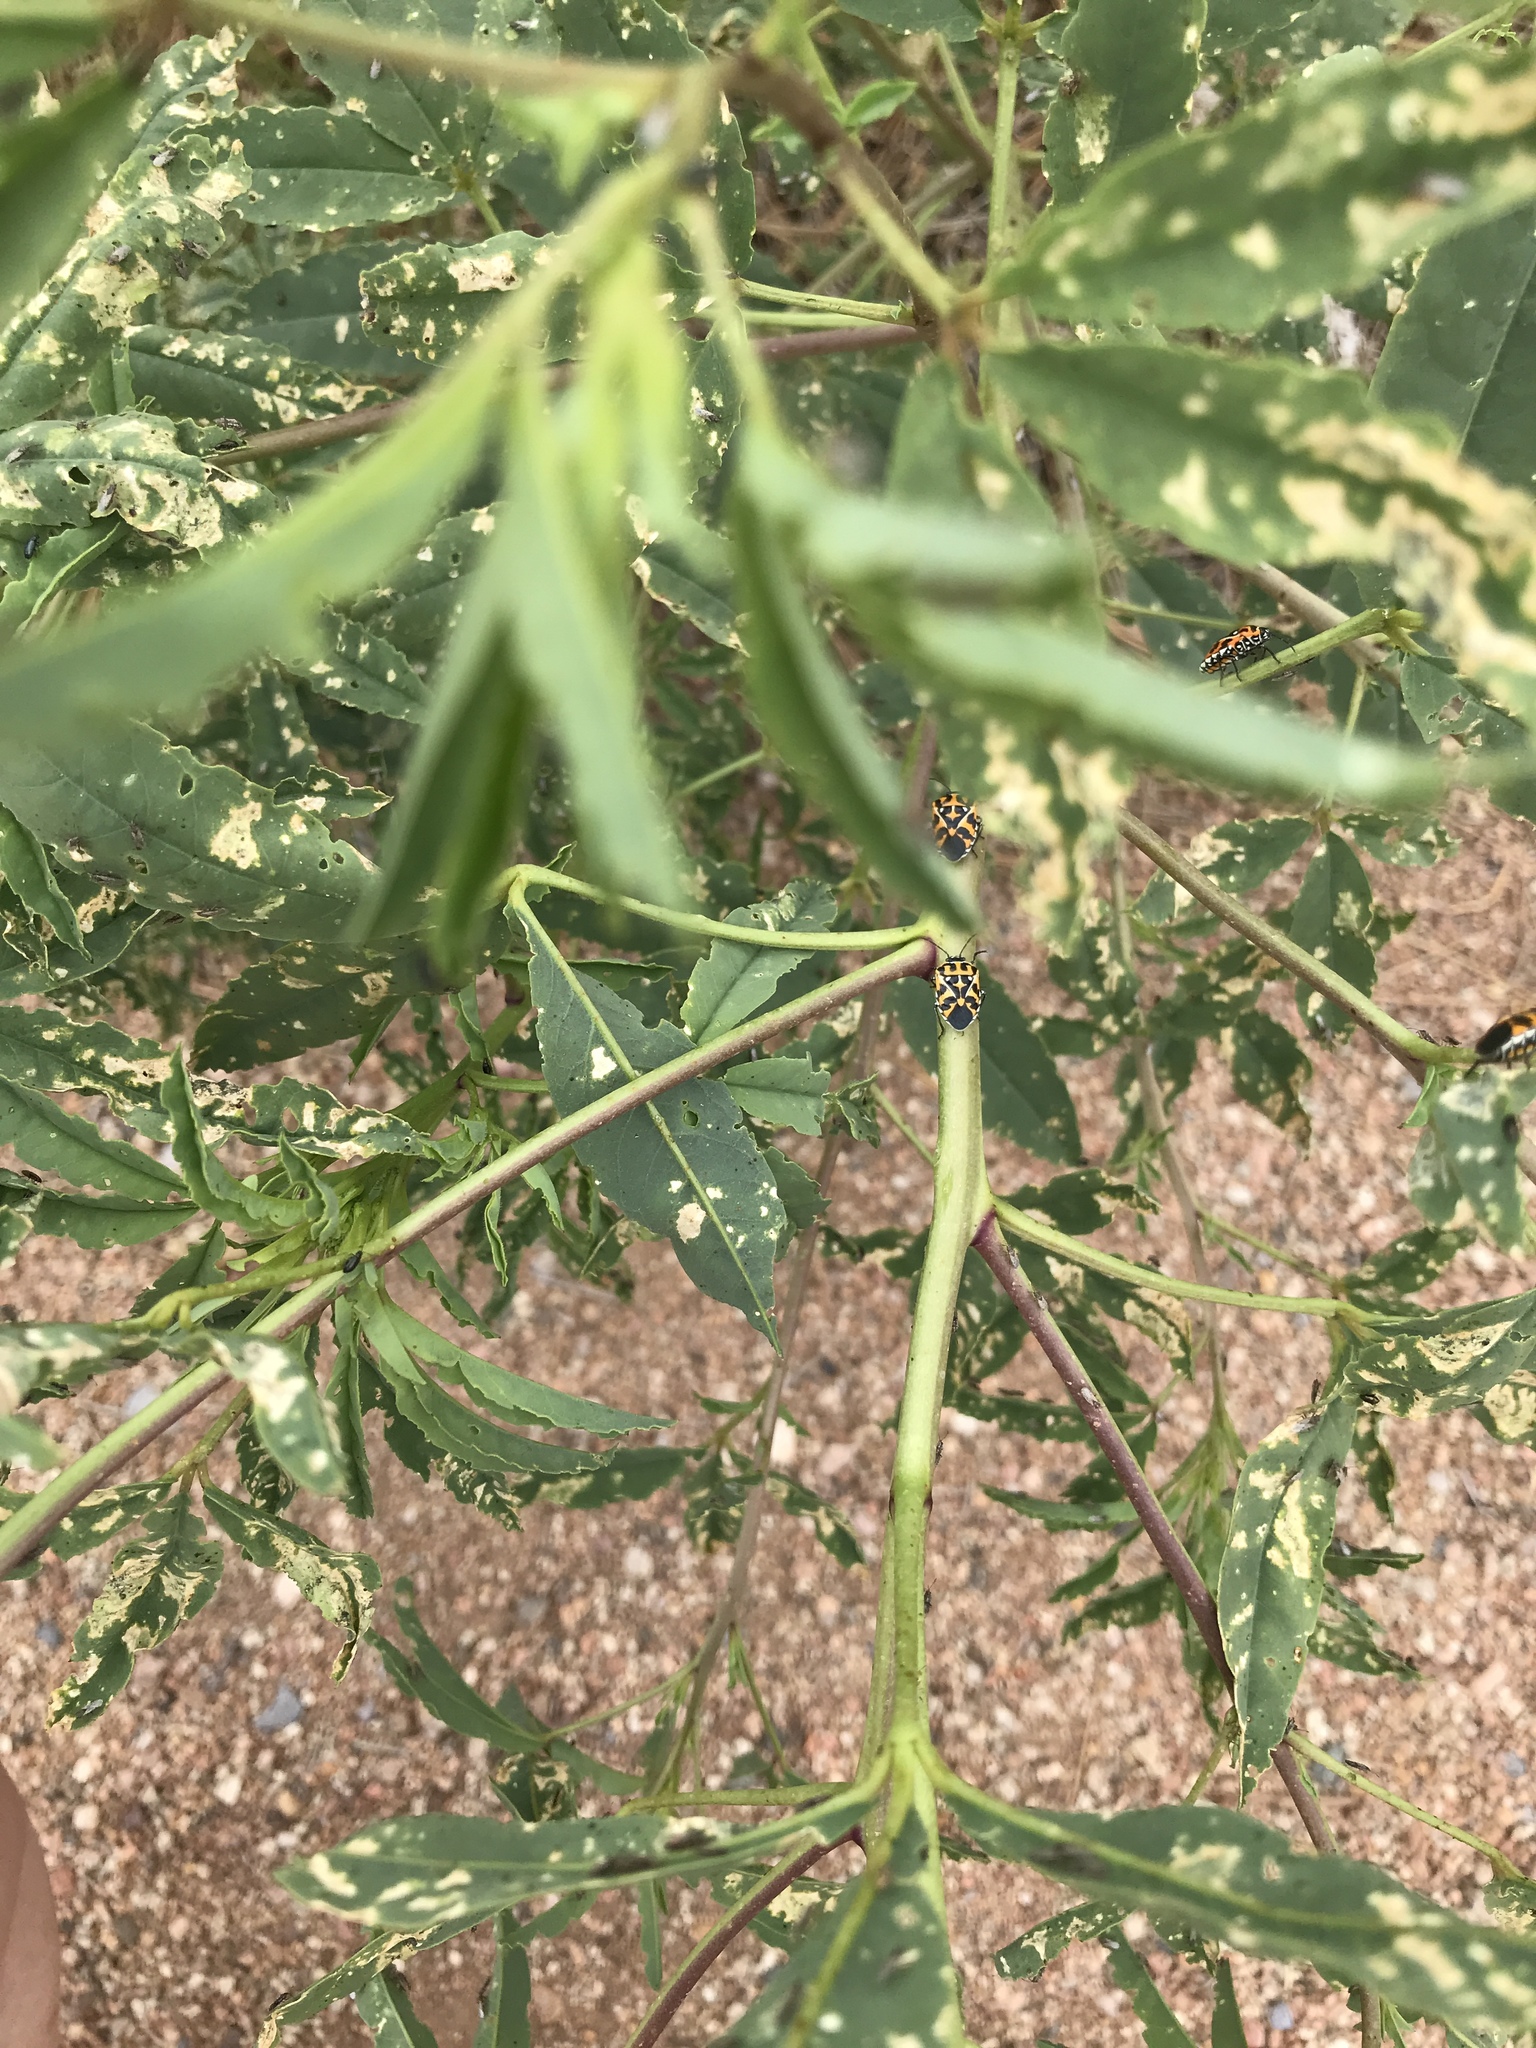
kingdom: Animalia
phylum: Arthropoda
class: Insecta
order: Hemiptera
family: Pentatomidae
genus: Murgantia
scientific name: Murgantia histrionica
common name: Harlequin bug
